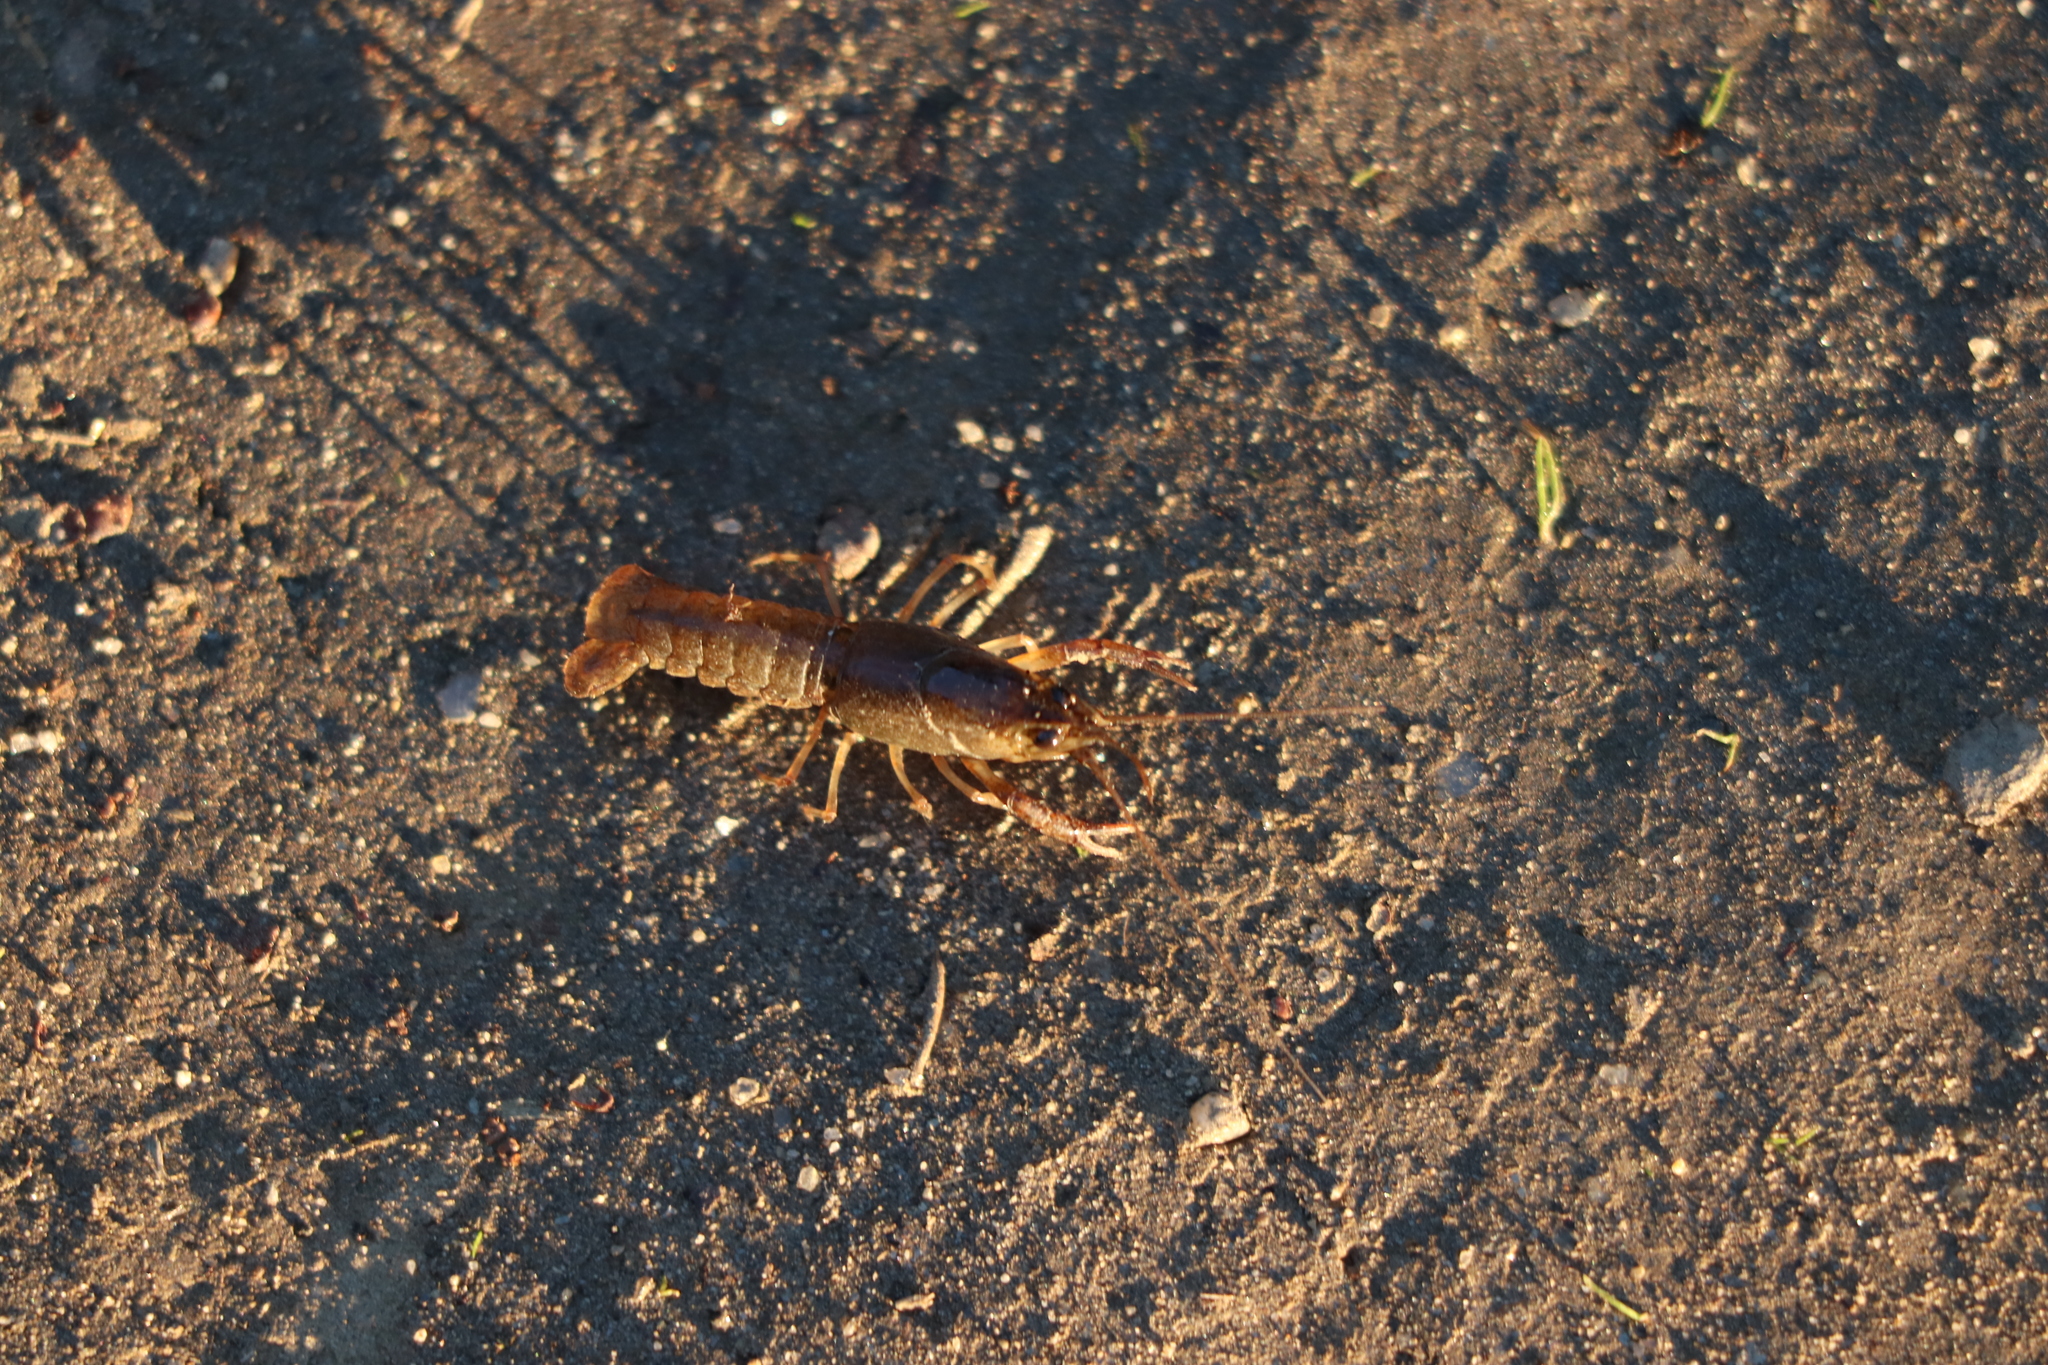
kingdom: Animalia
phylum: Arthropoda
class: Malacostraca
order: Decapoda
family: Cambaridae
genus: Procambarus
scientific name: Procambarus clarkii
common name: Red swamp crayfish
